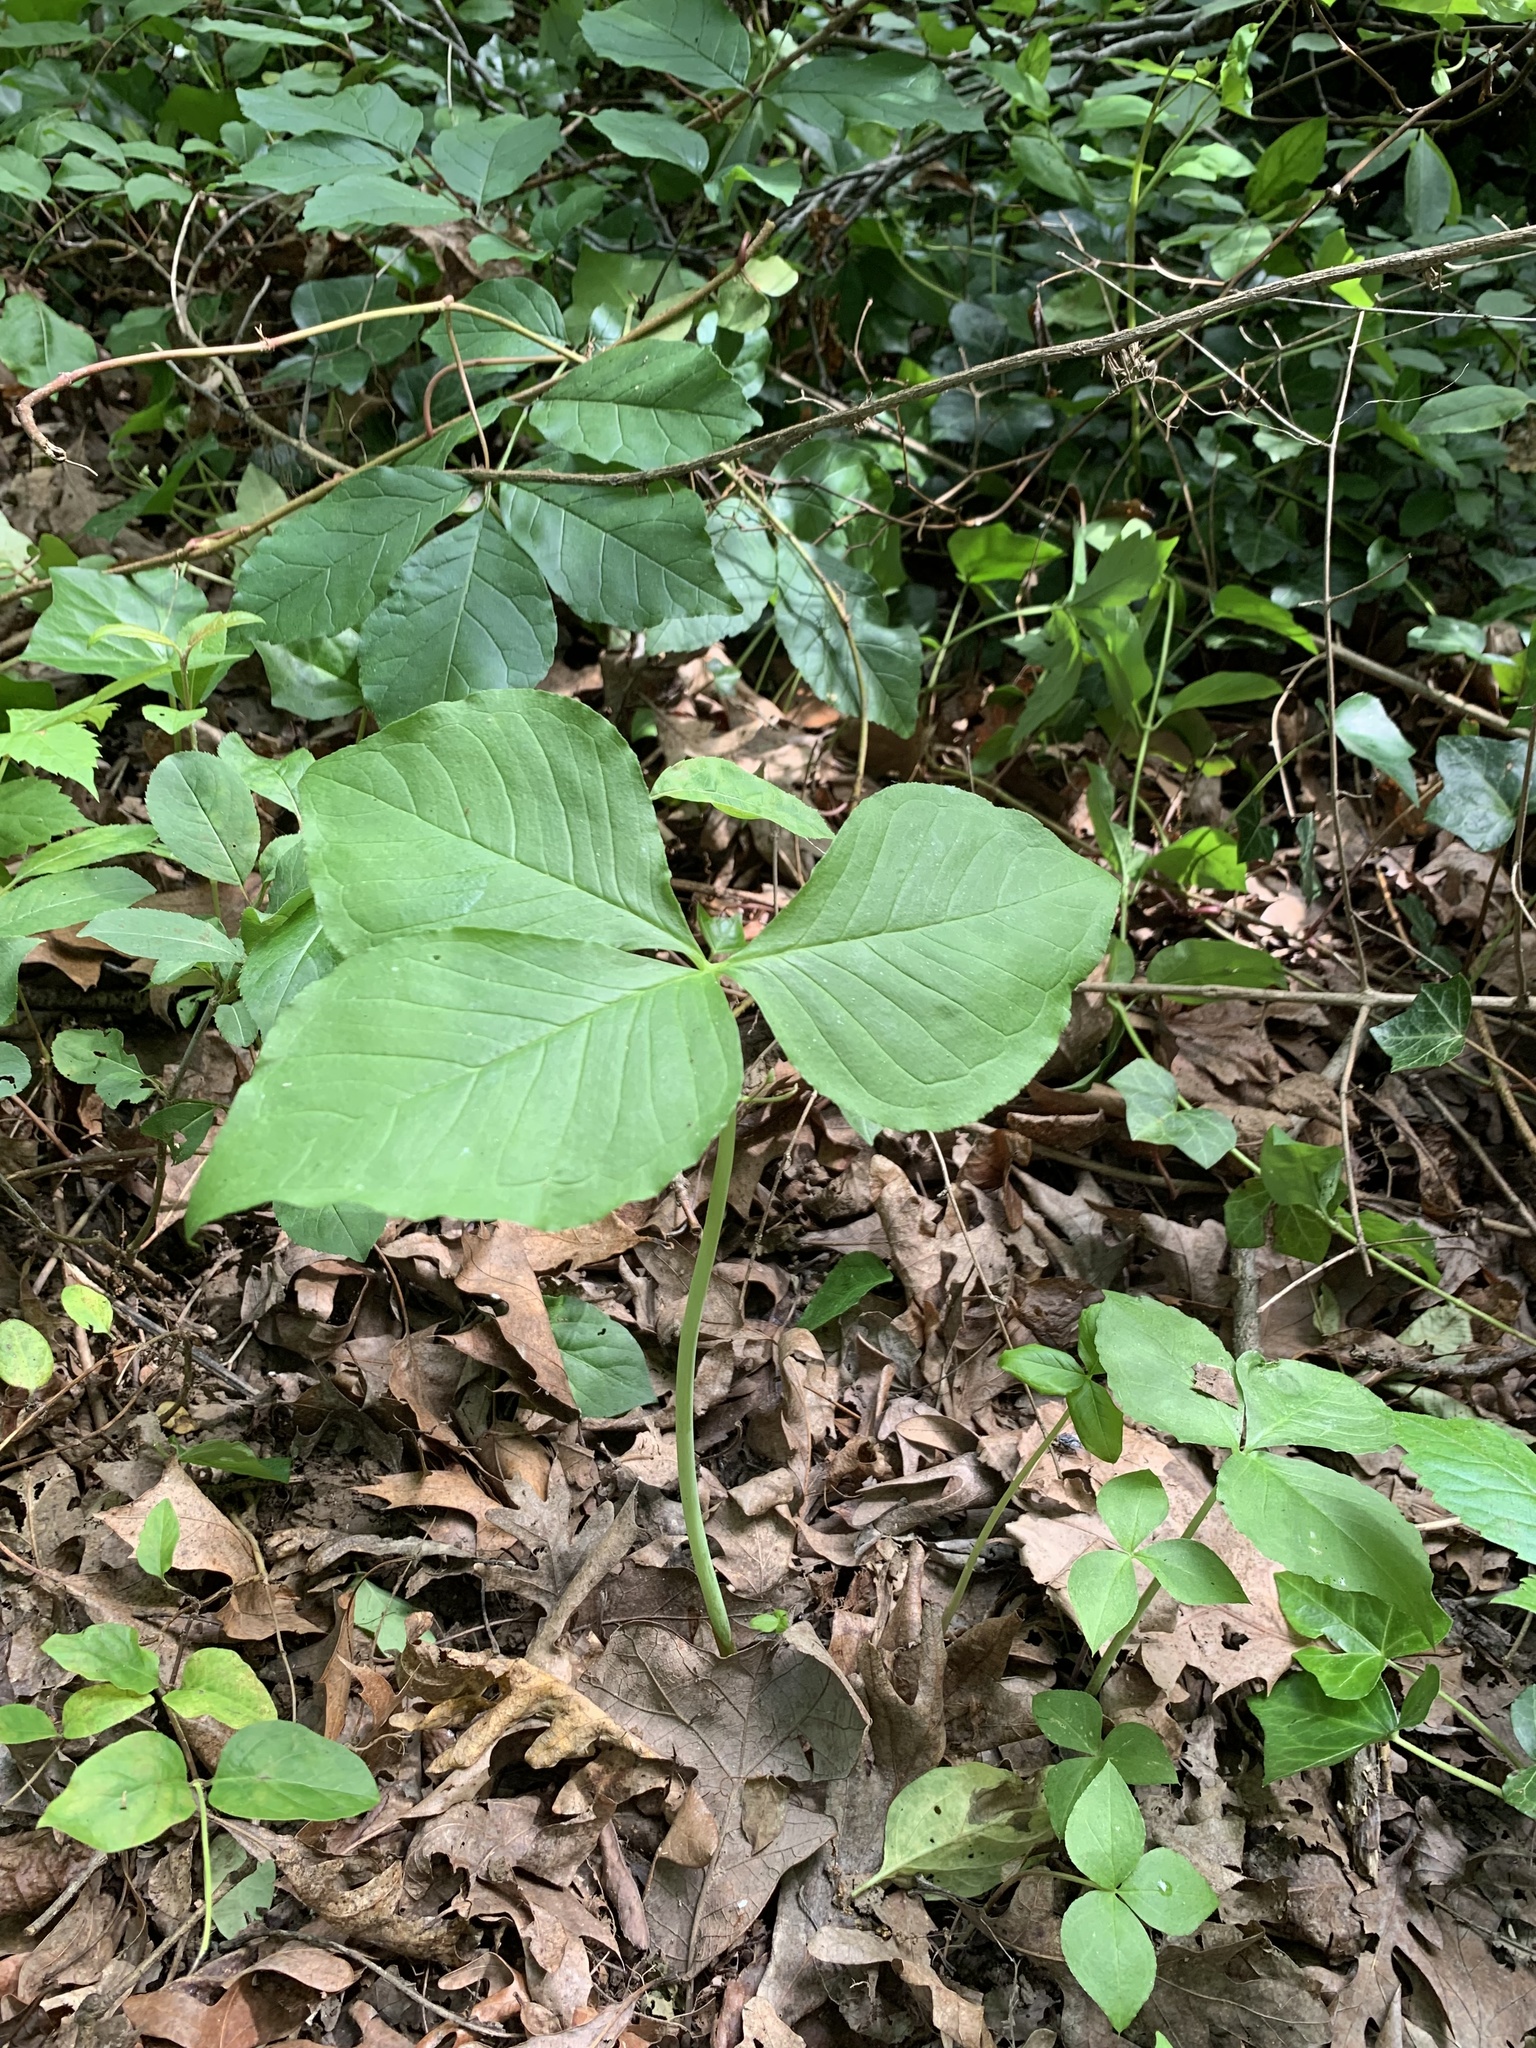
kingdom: Plantae
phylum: Tracheophyta
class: Liliopsida
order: Alismatales
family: Araceae
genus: Arisaema
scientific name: Arisaema triphyllum
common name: Jack-in-the-pulpit
